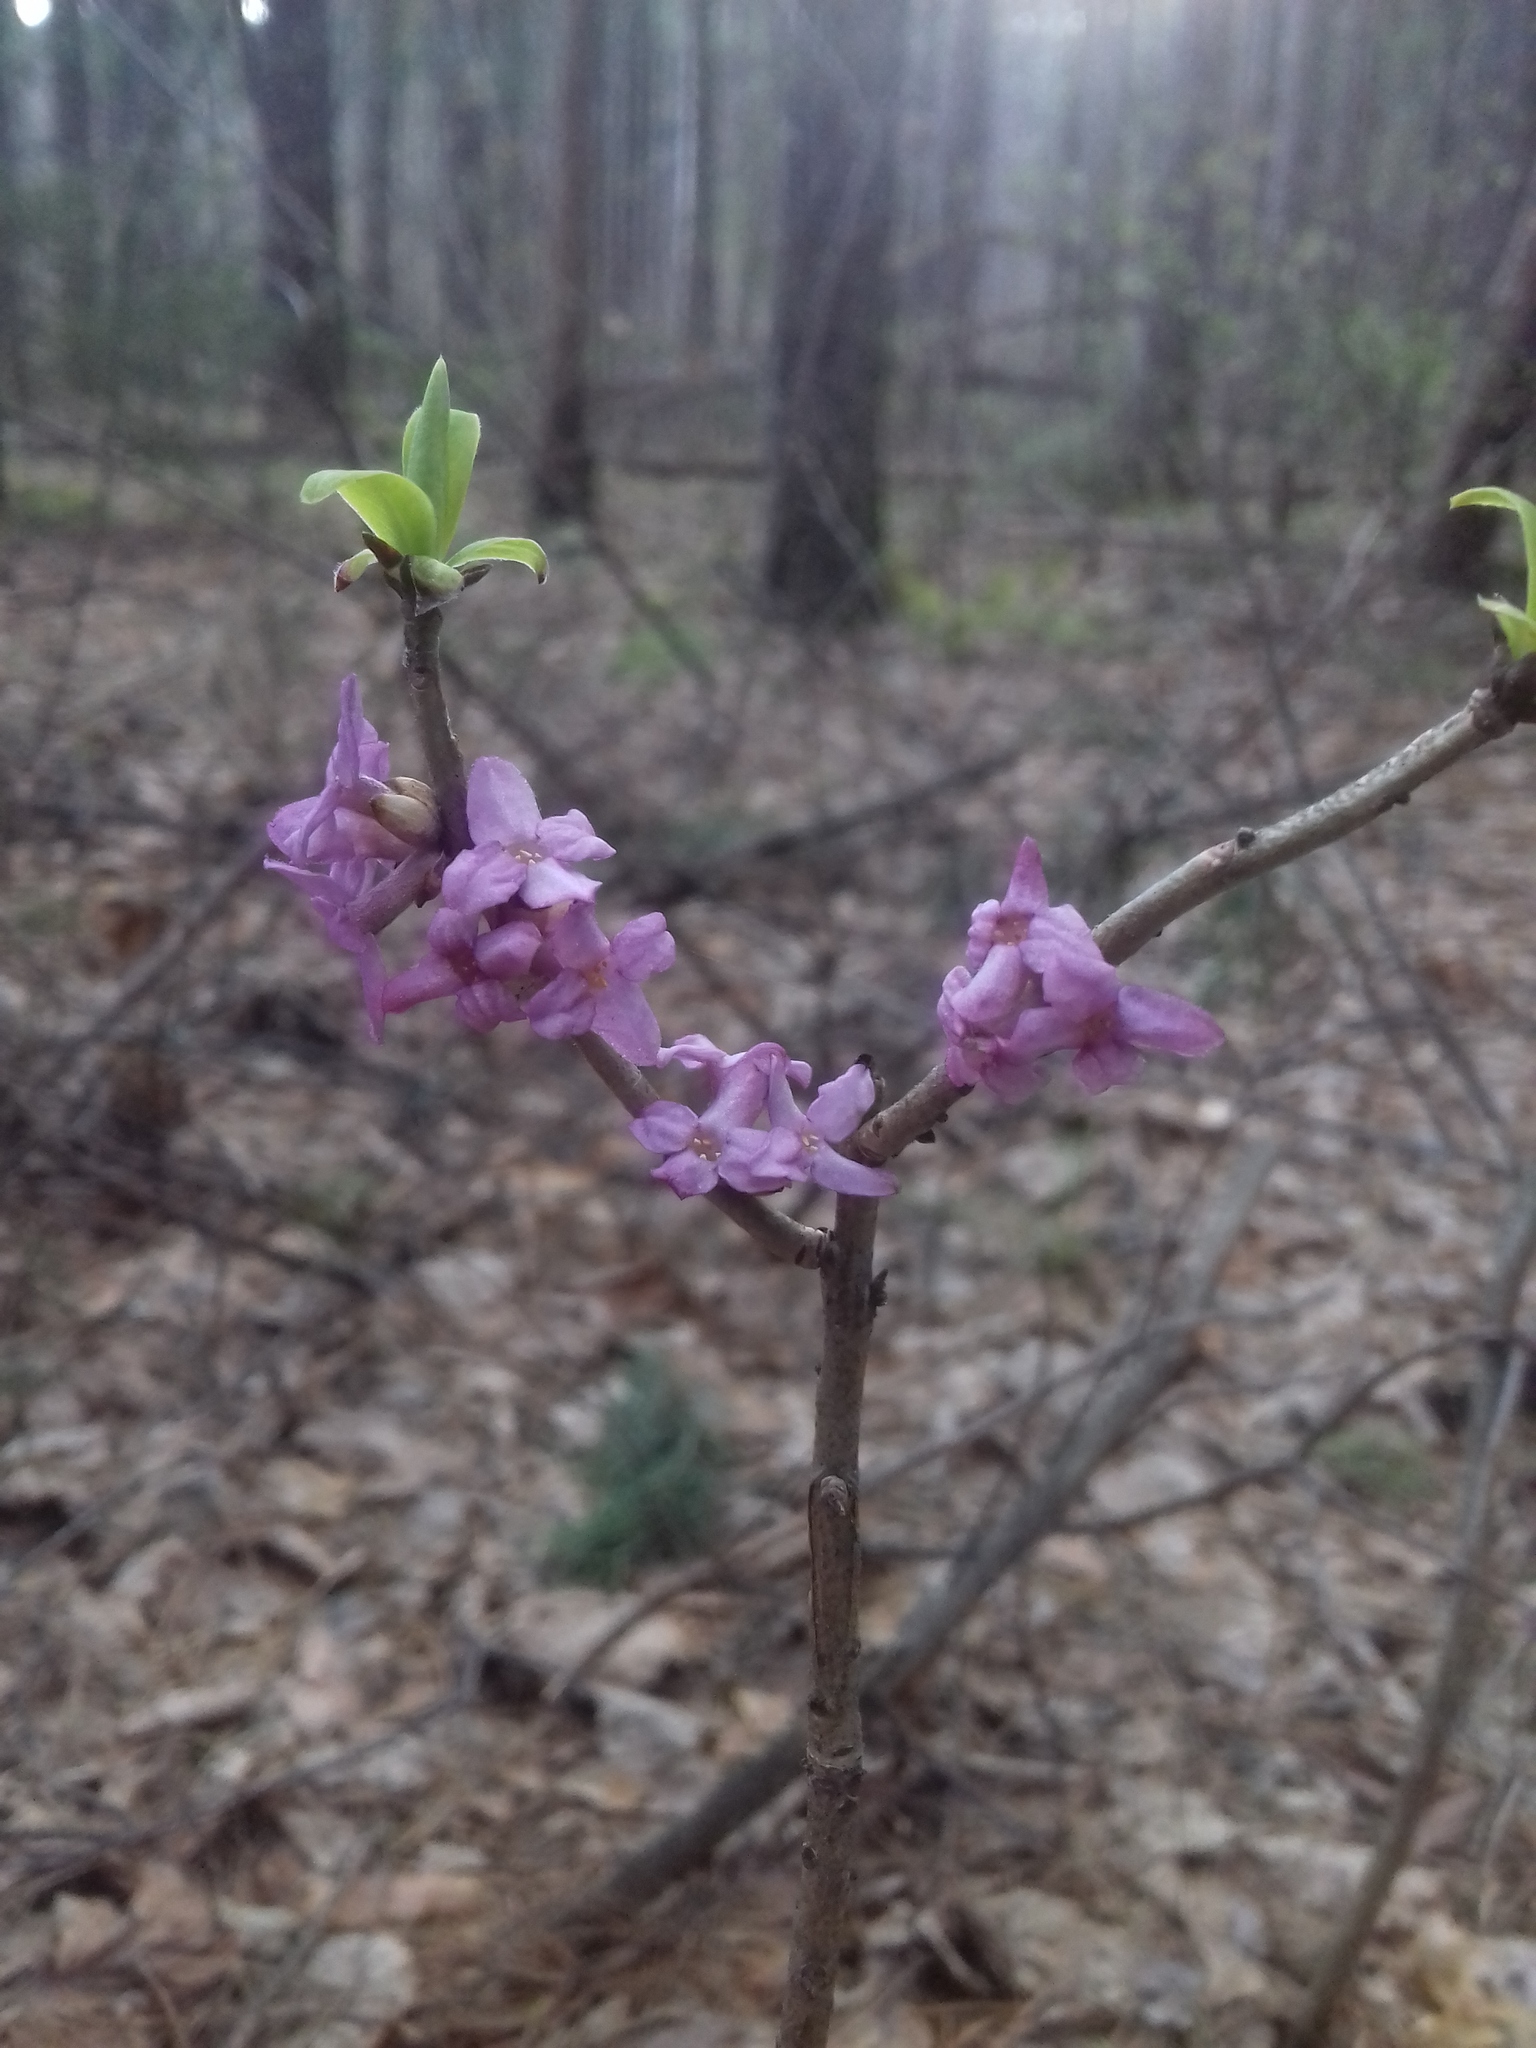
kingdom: Plantae
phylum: Tracheophyta
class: Magnoliopsida
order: Malvales
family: Thymelaeaceae
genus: Daphne
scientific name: Daphne mezereum
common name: Mezereon
